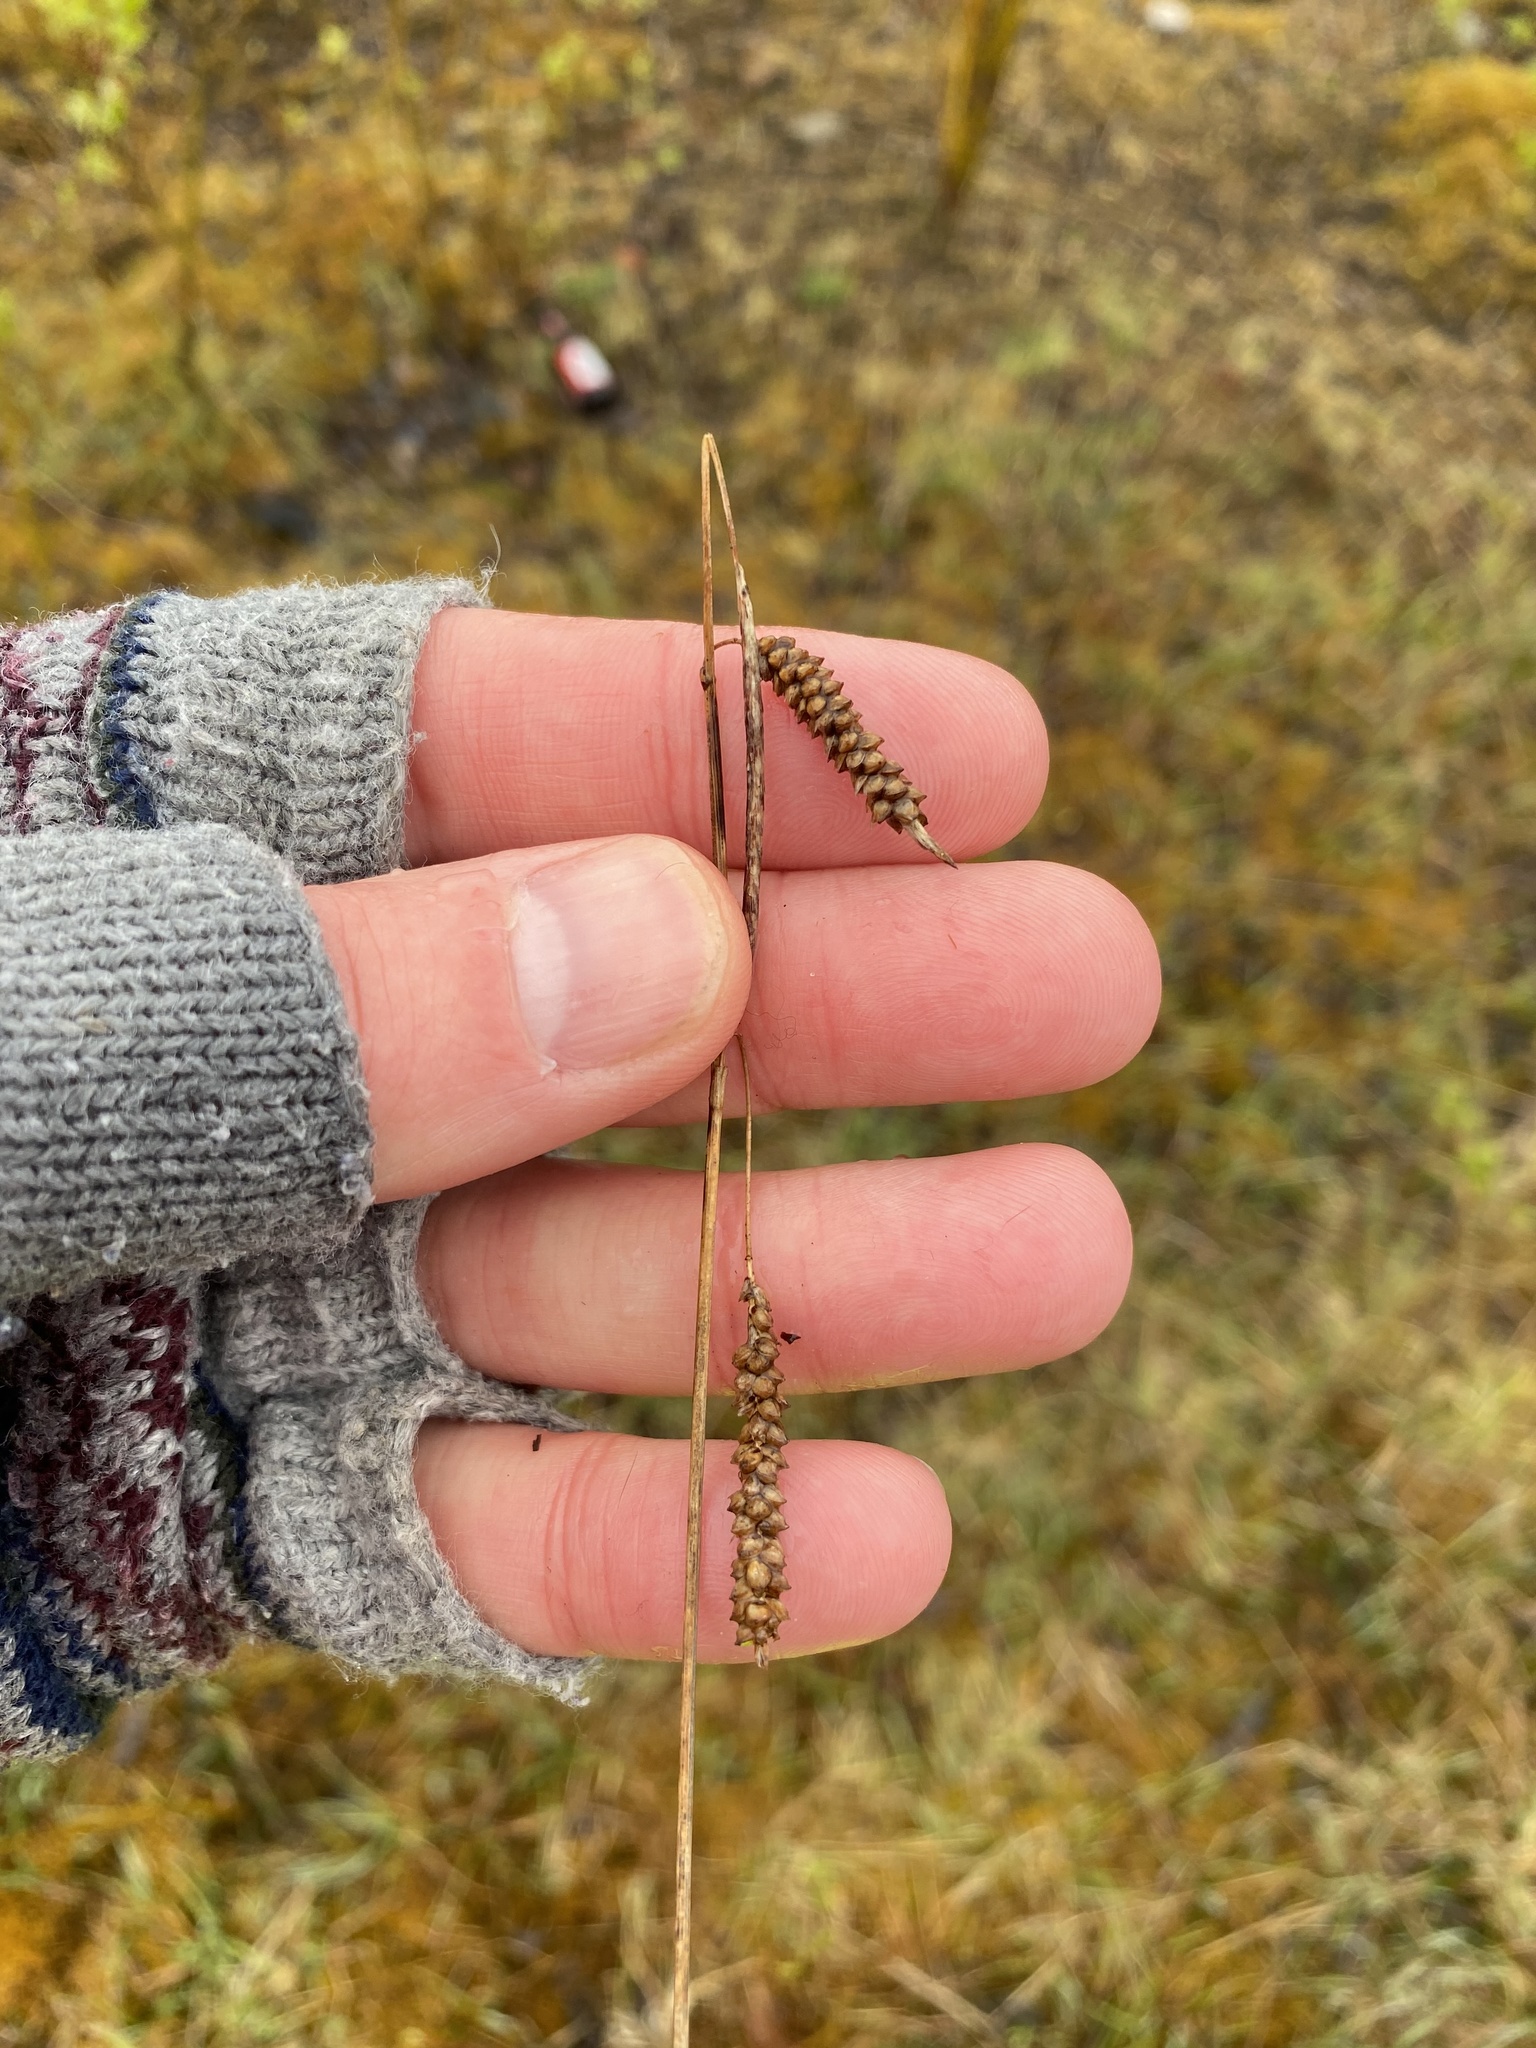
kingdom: Plantae
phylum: Tracheophyta
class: Liliopsida
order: Poales
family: Cyperaceae
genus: Carex
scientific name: Carex flacca
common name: Glaucous sedge
